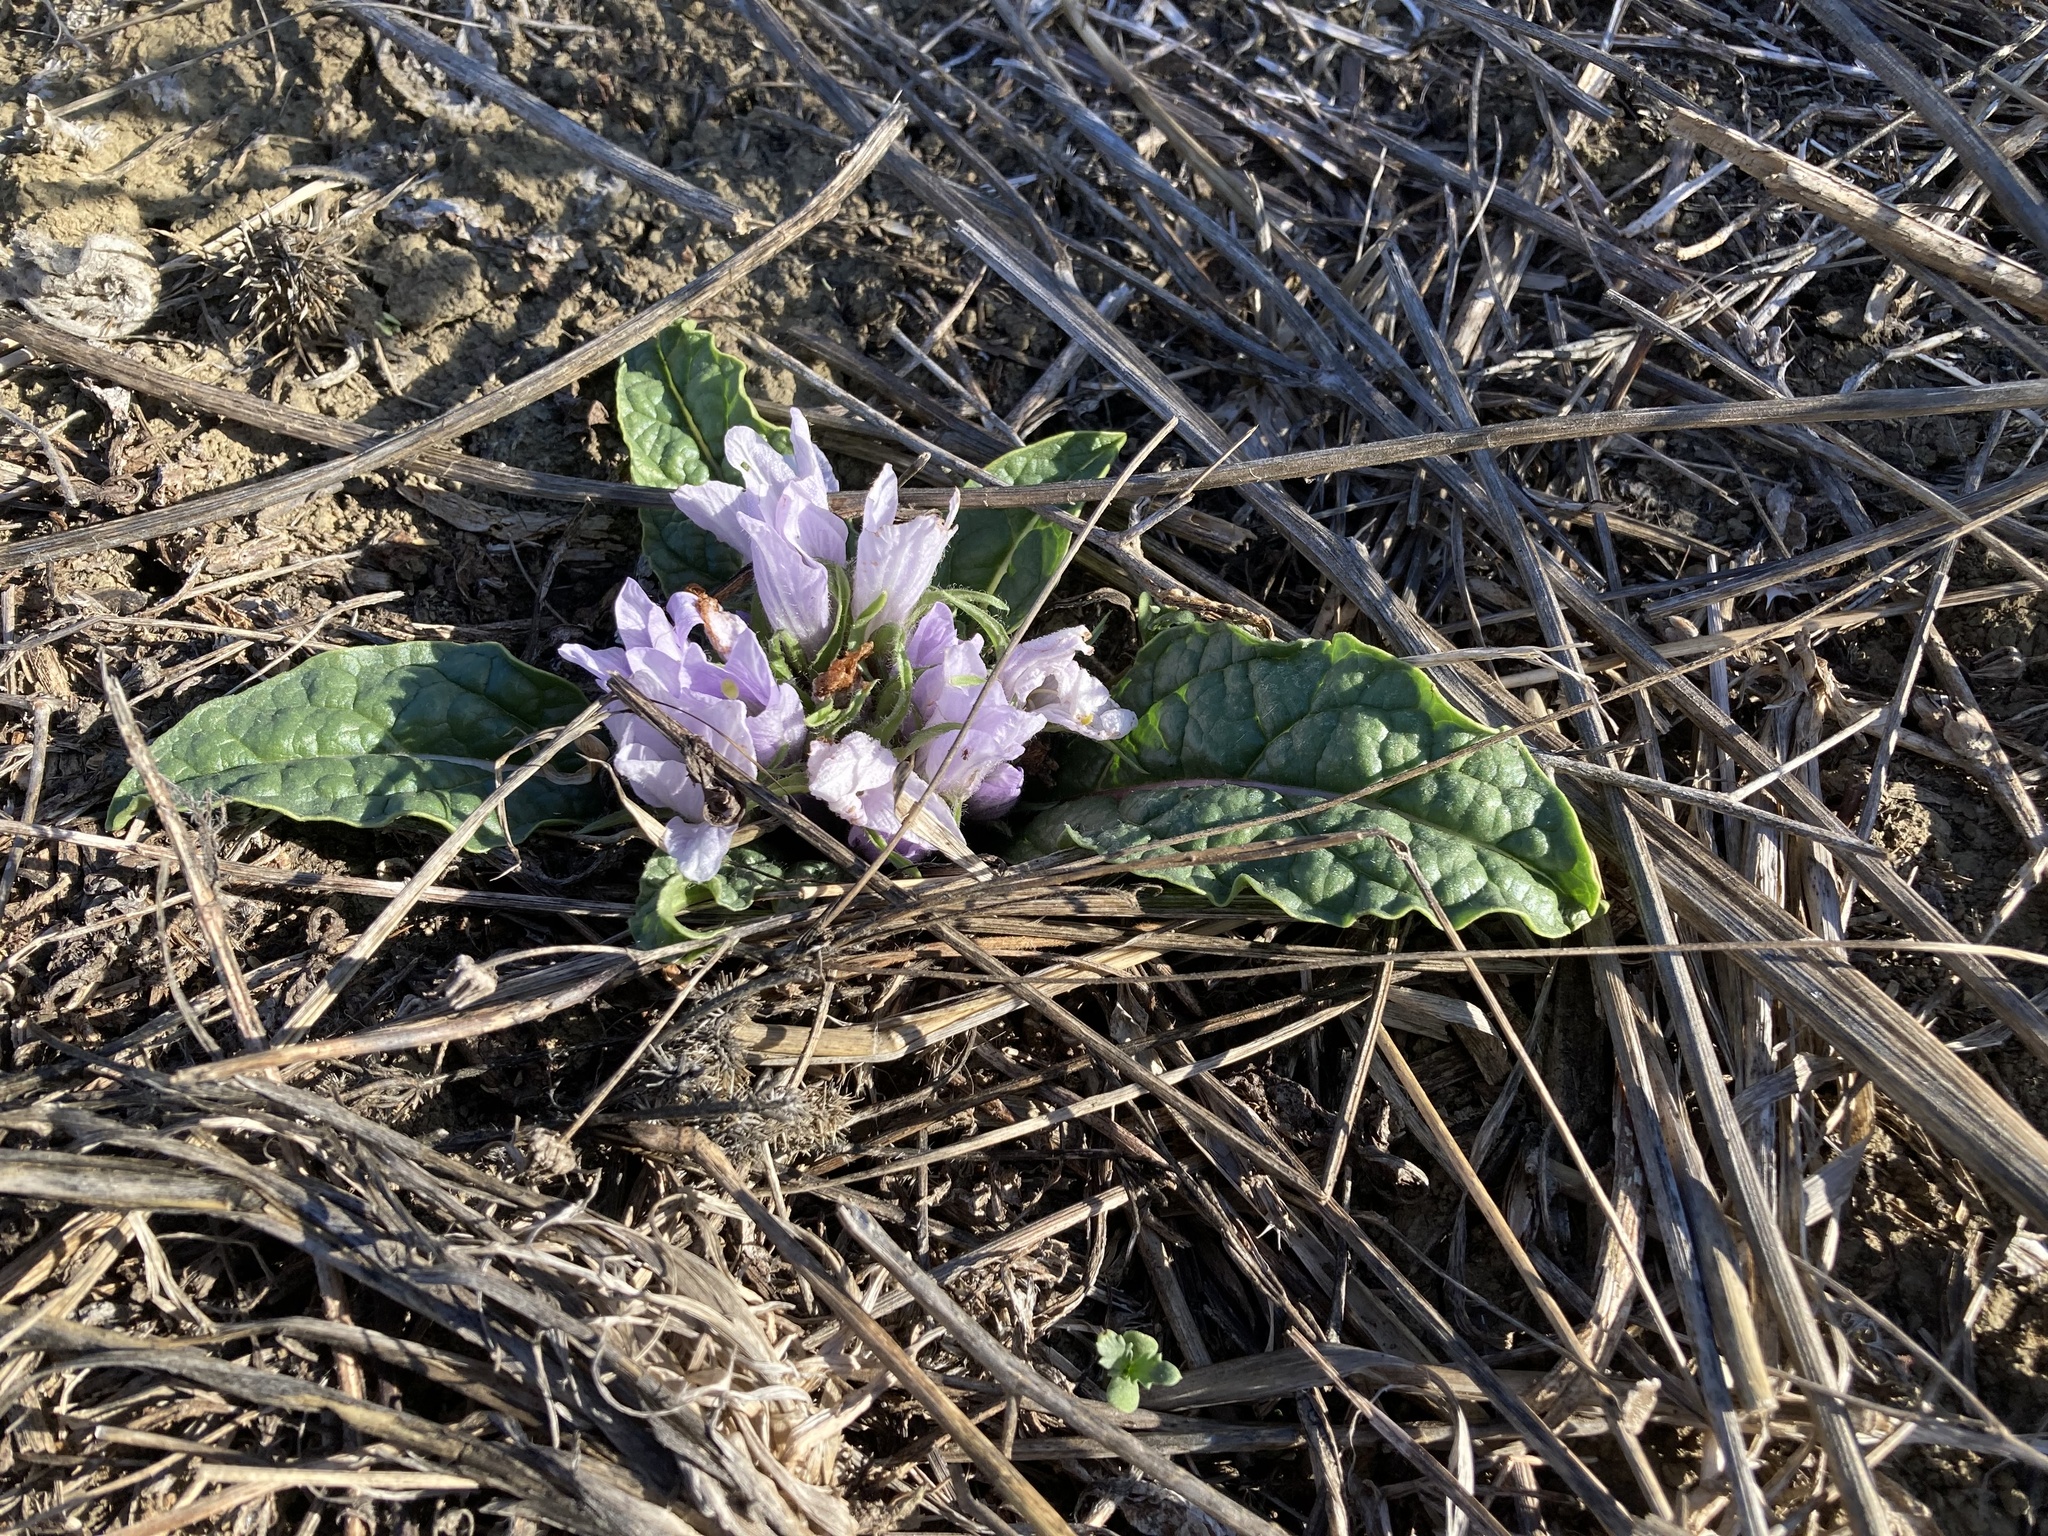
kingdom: Plantae
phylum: Tracheophyta
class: Magnoliopsida
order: Solanales
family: Solanaceae
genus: Mandragora
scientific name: Mandragora officinarum
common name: Mandrake
